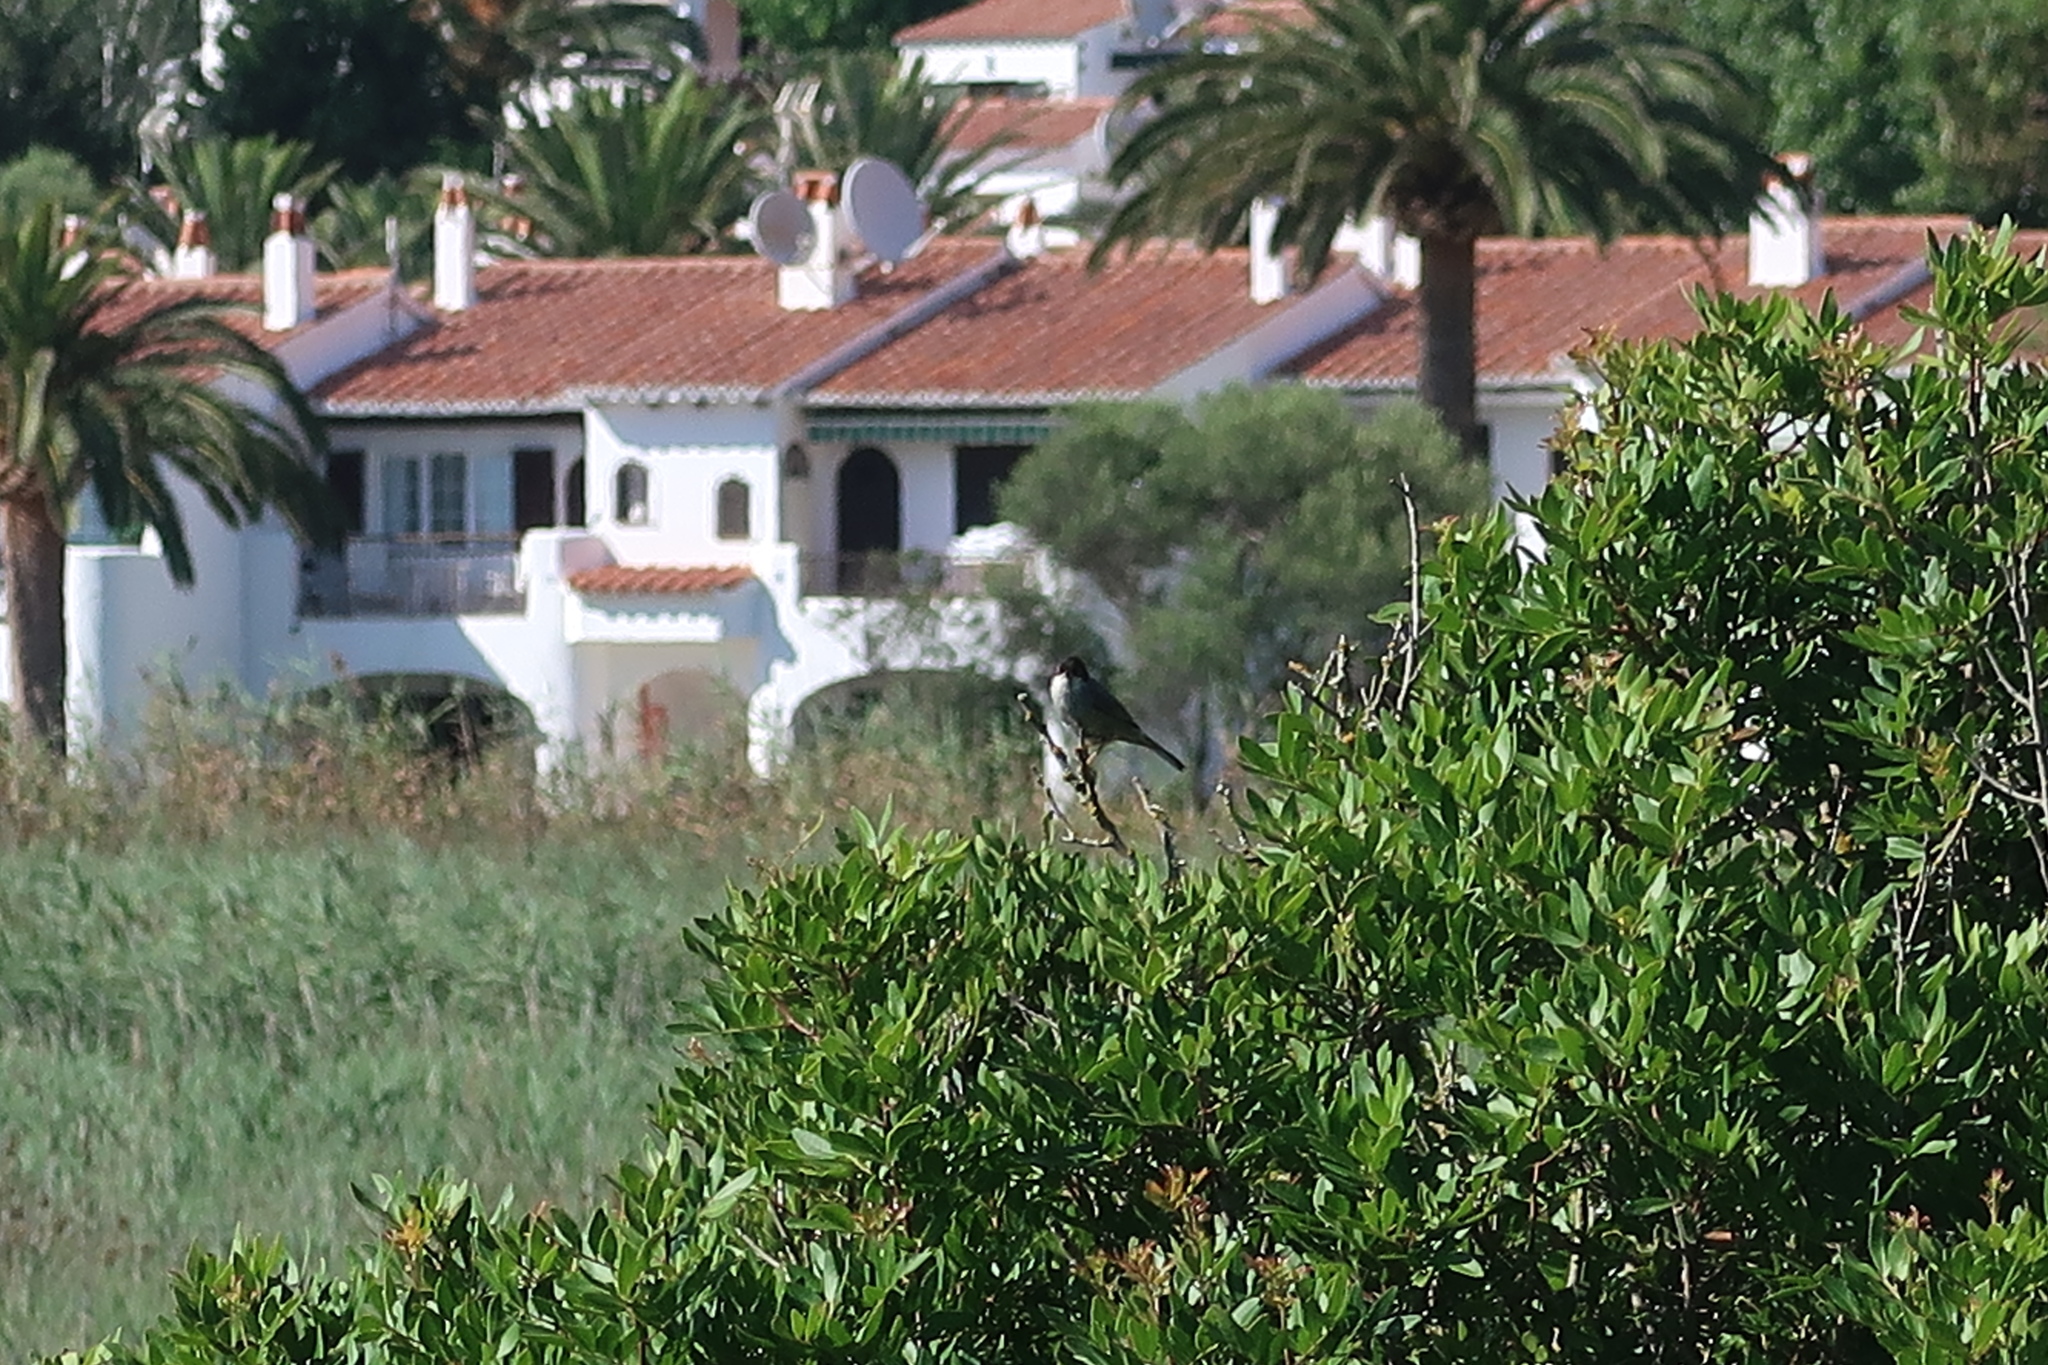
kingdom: Animalia
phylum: Chordata
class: Aves
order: Passeriformes
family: Sylviidae
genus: Curruca
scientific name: Curruca melanocephala
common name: Sardinian warbler
